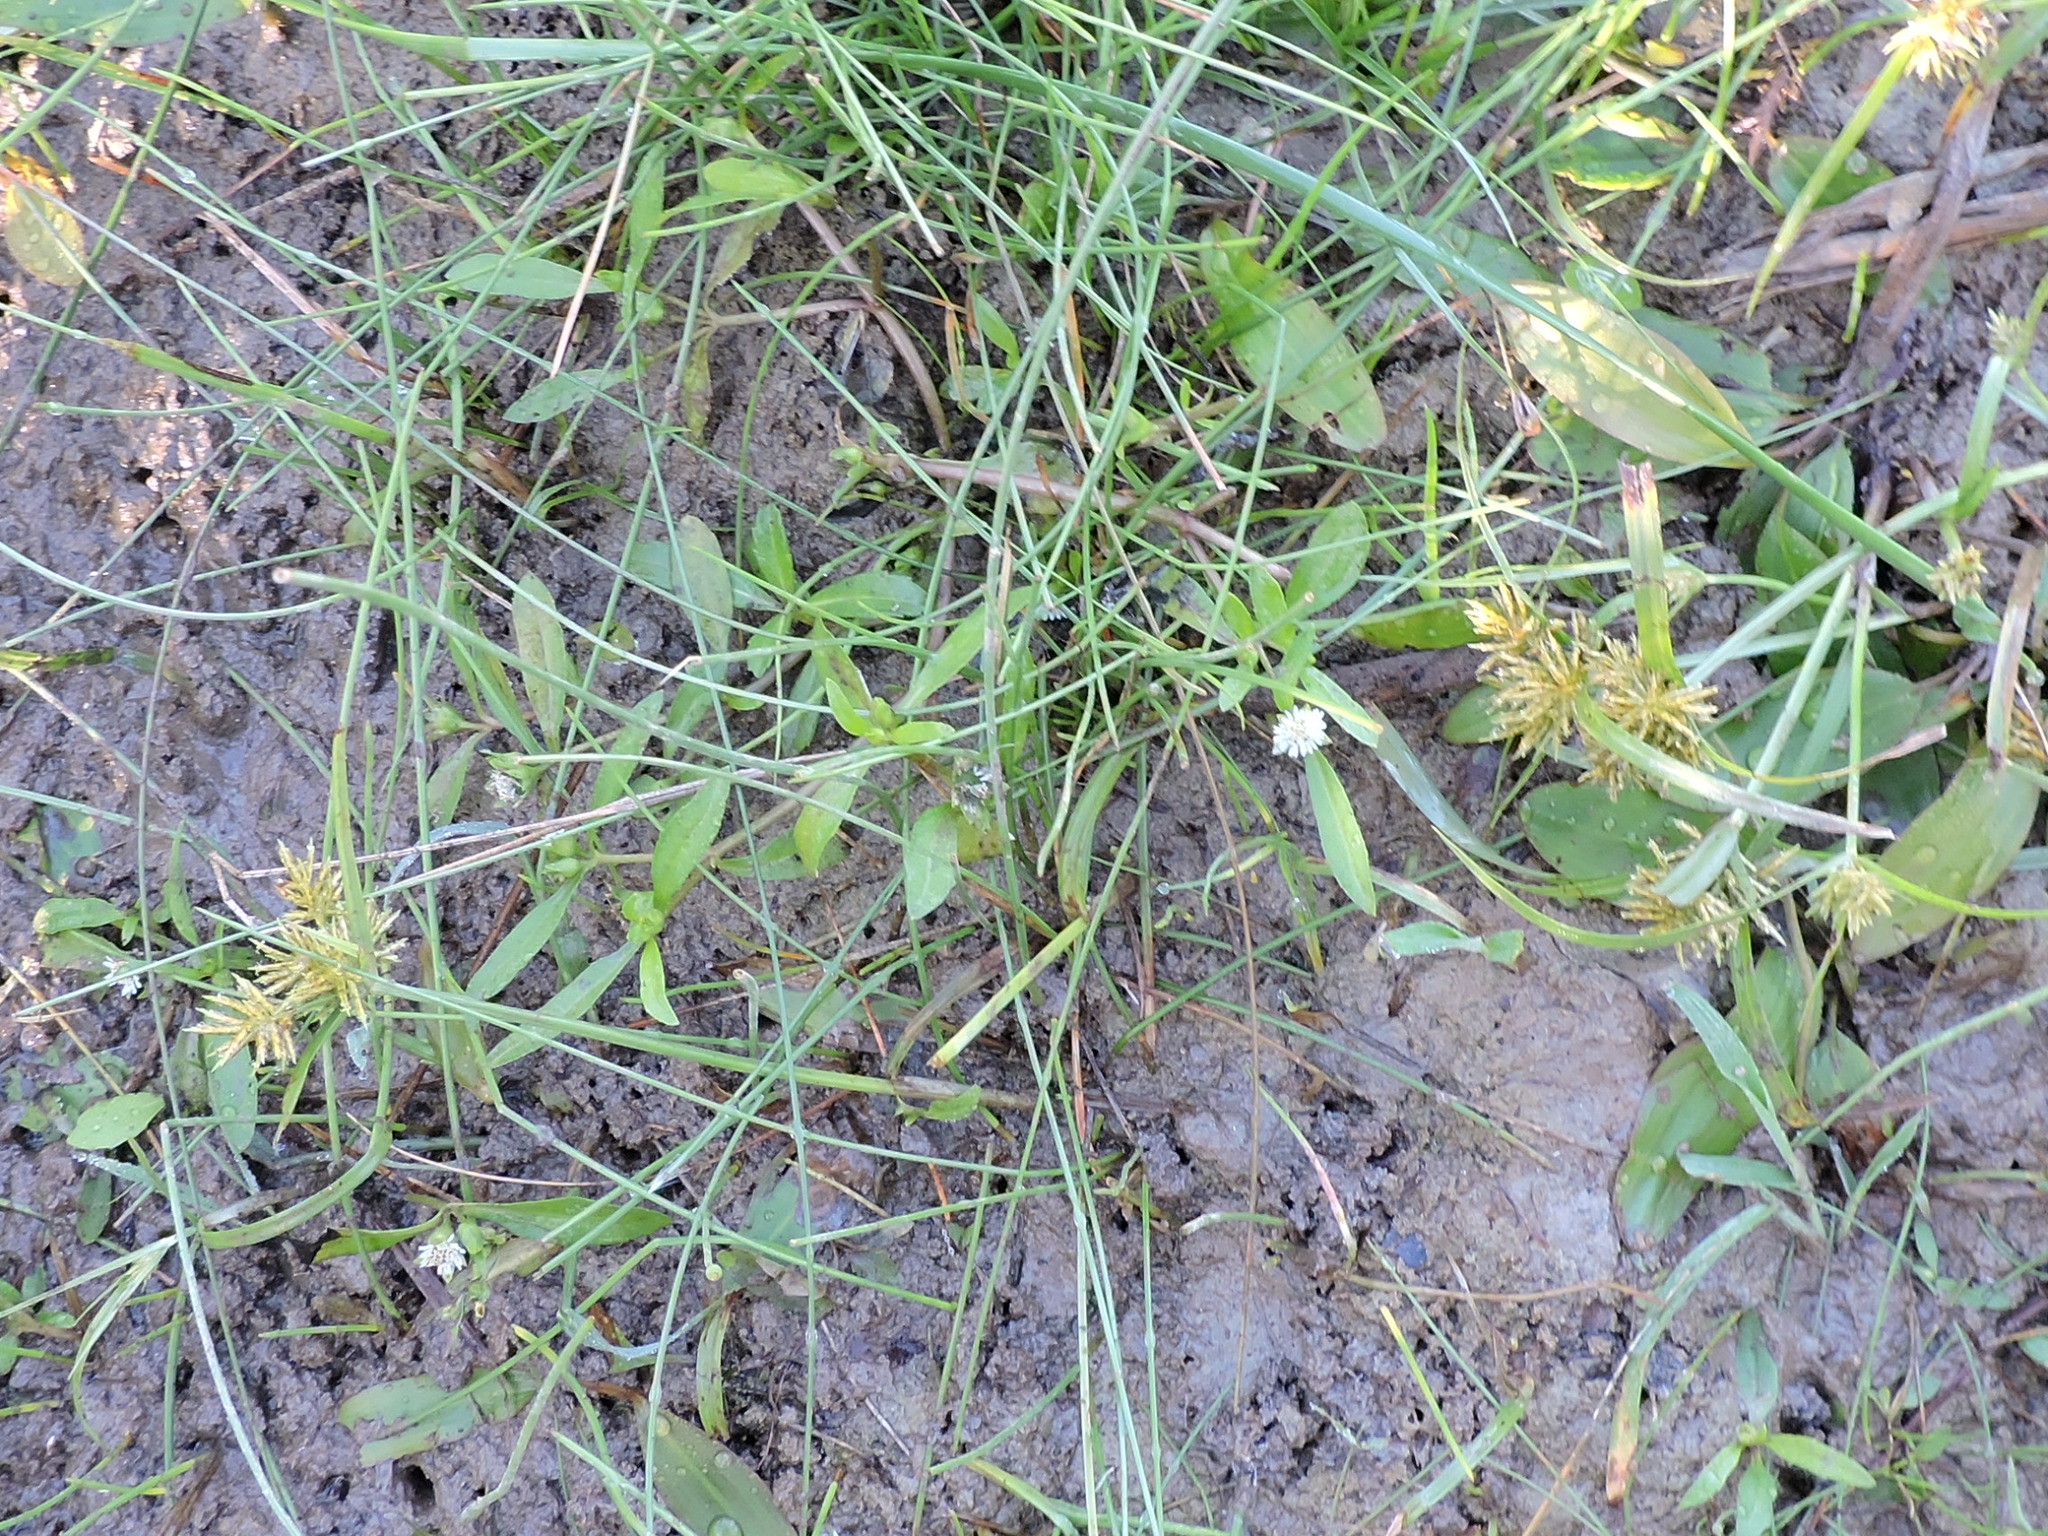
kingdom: Plantae
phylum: Tracheophyta
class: Magnoliopsida
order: Asterales
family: Asteraceae
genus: Eclipta
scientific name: Eclipta prostrata
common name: False daisy
